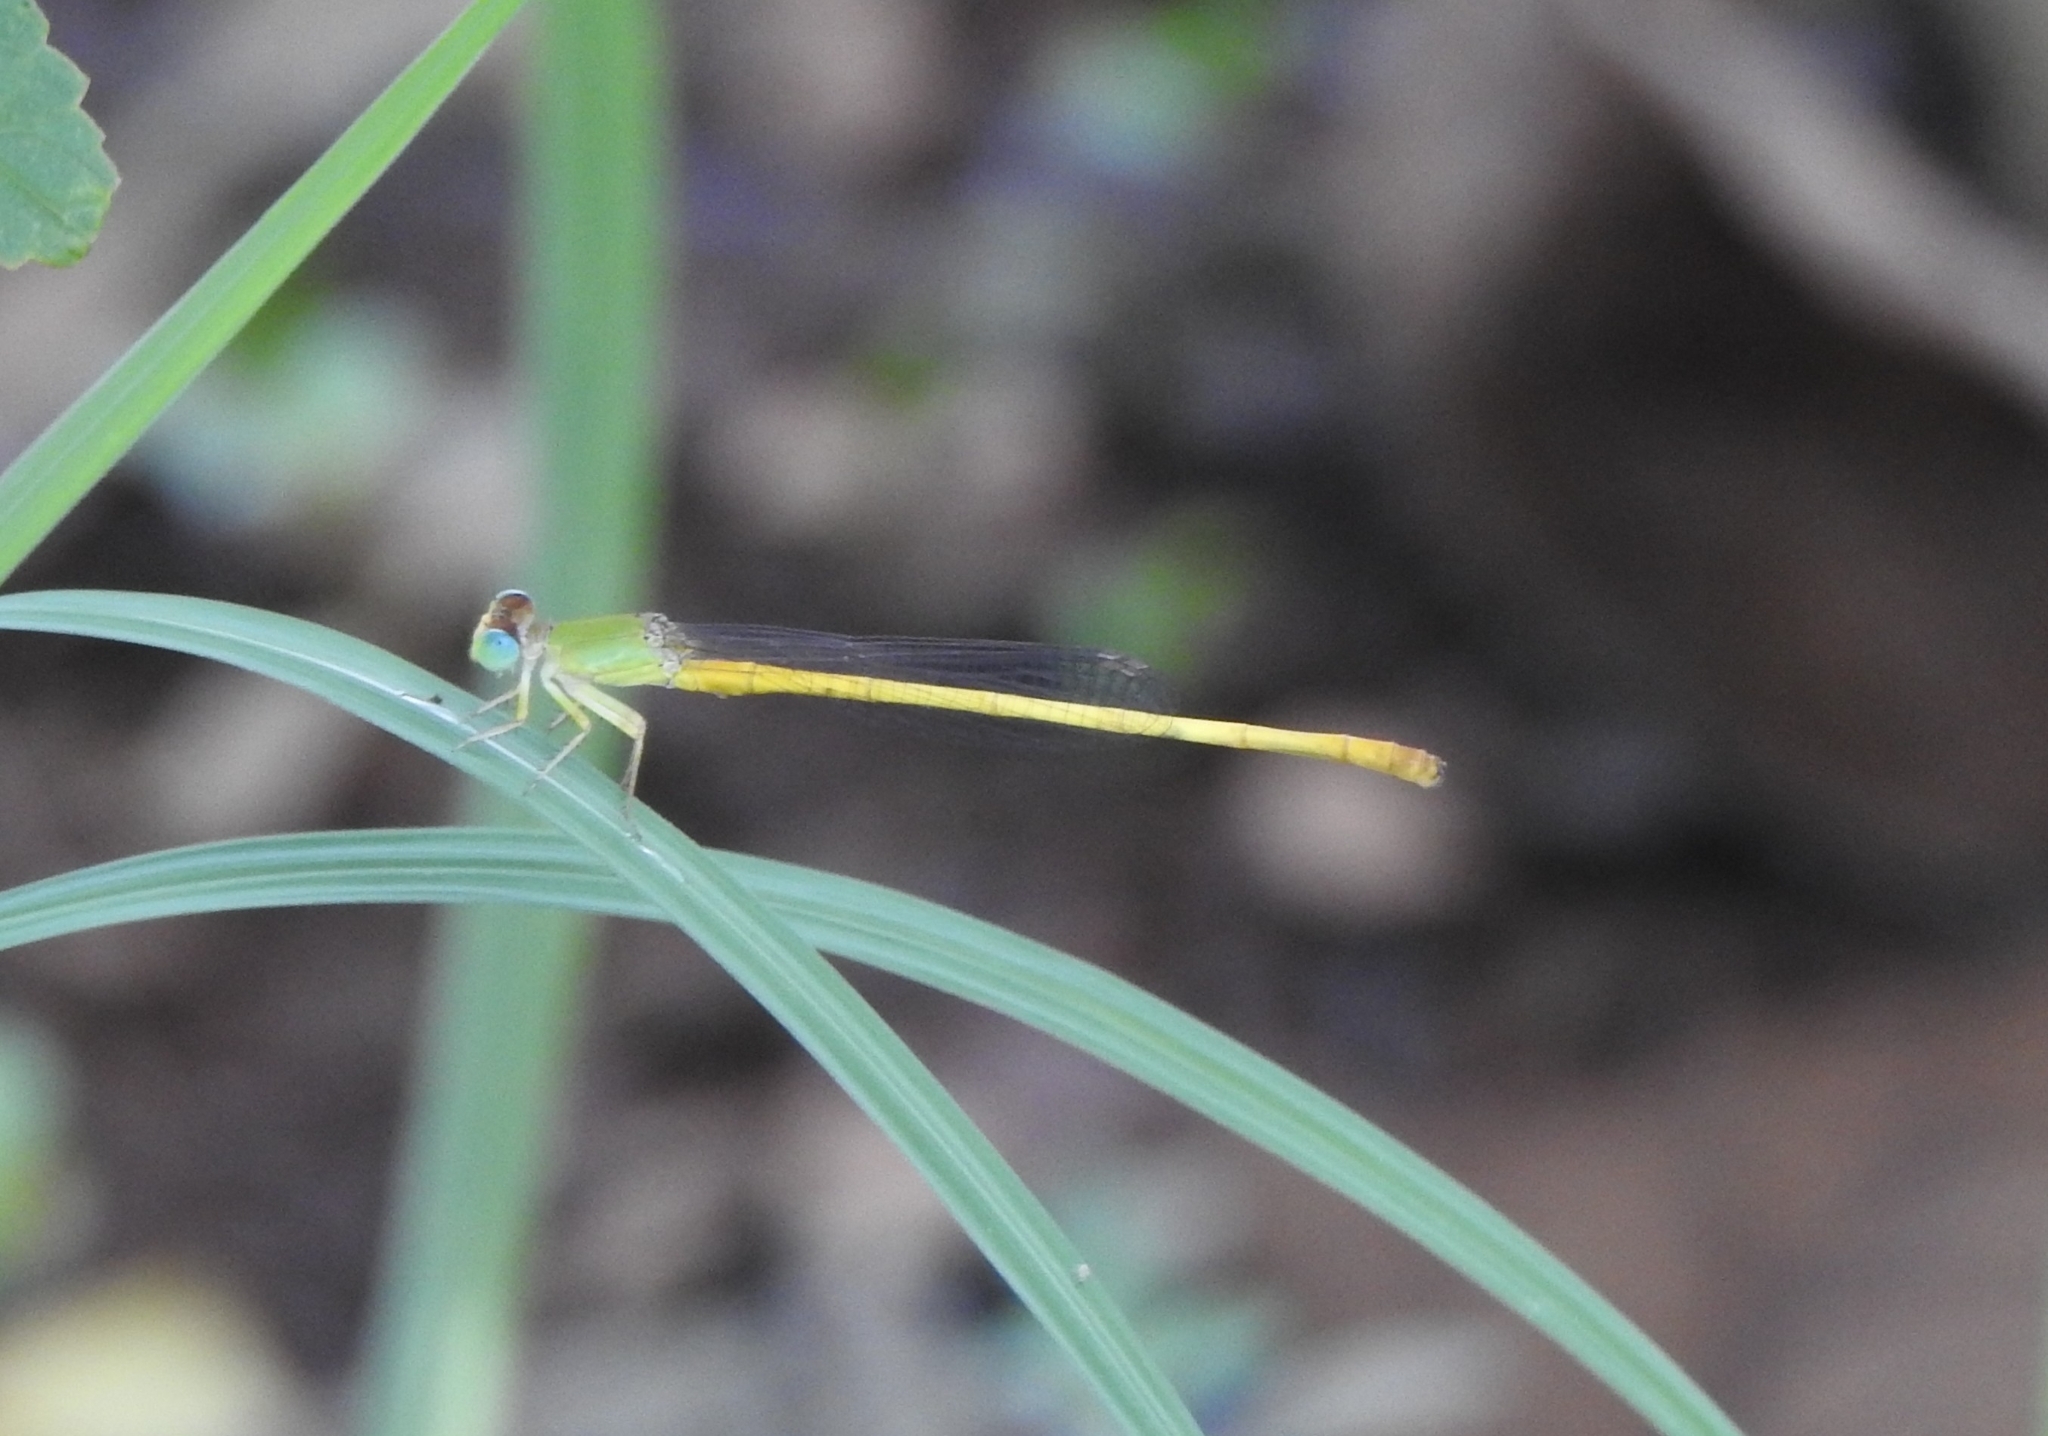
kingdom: Animalia
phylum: Arthropoda
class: Insecta
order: Odonata
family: Coenagrionidae
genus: Ceriagrion
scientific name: Ceriagrion coromandelianum
